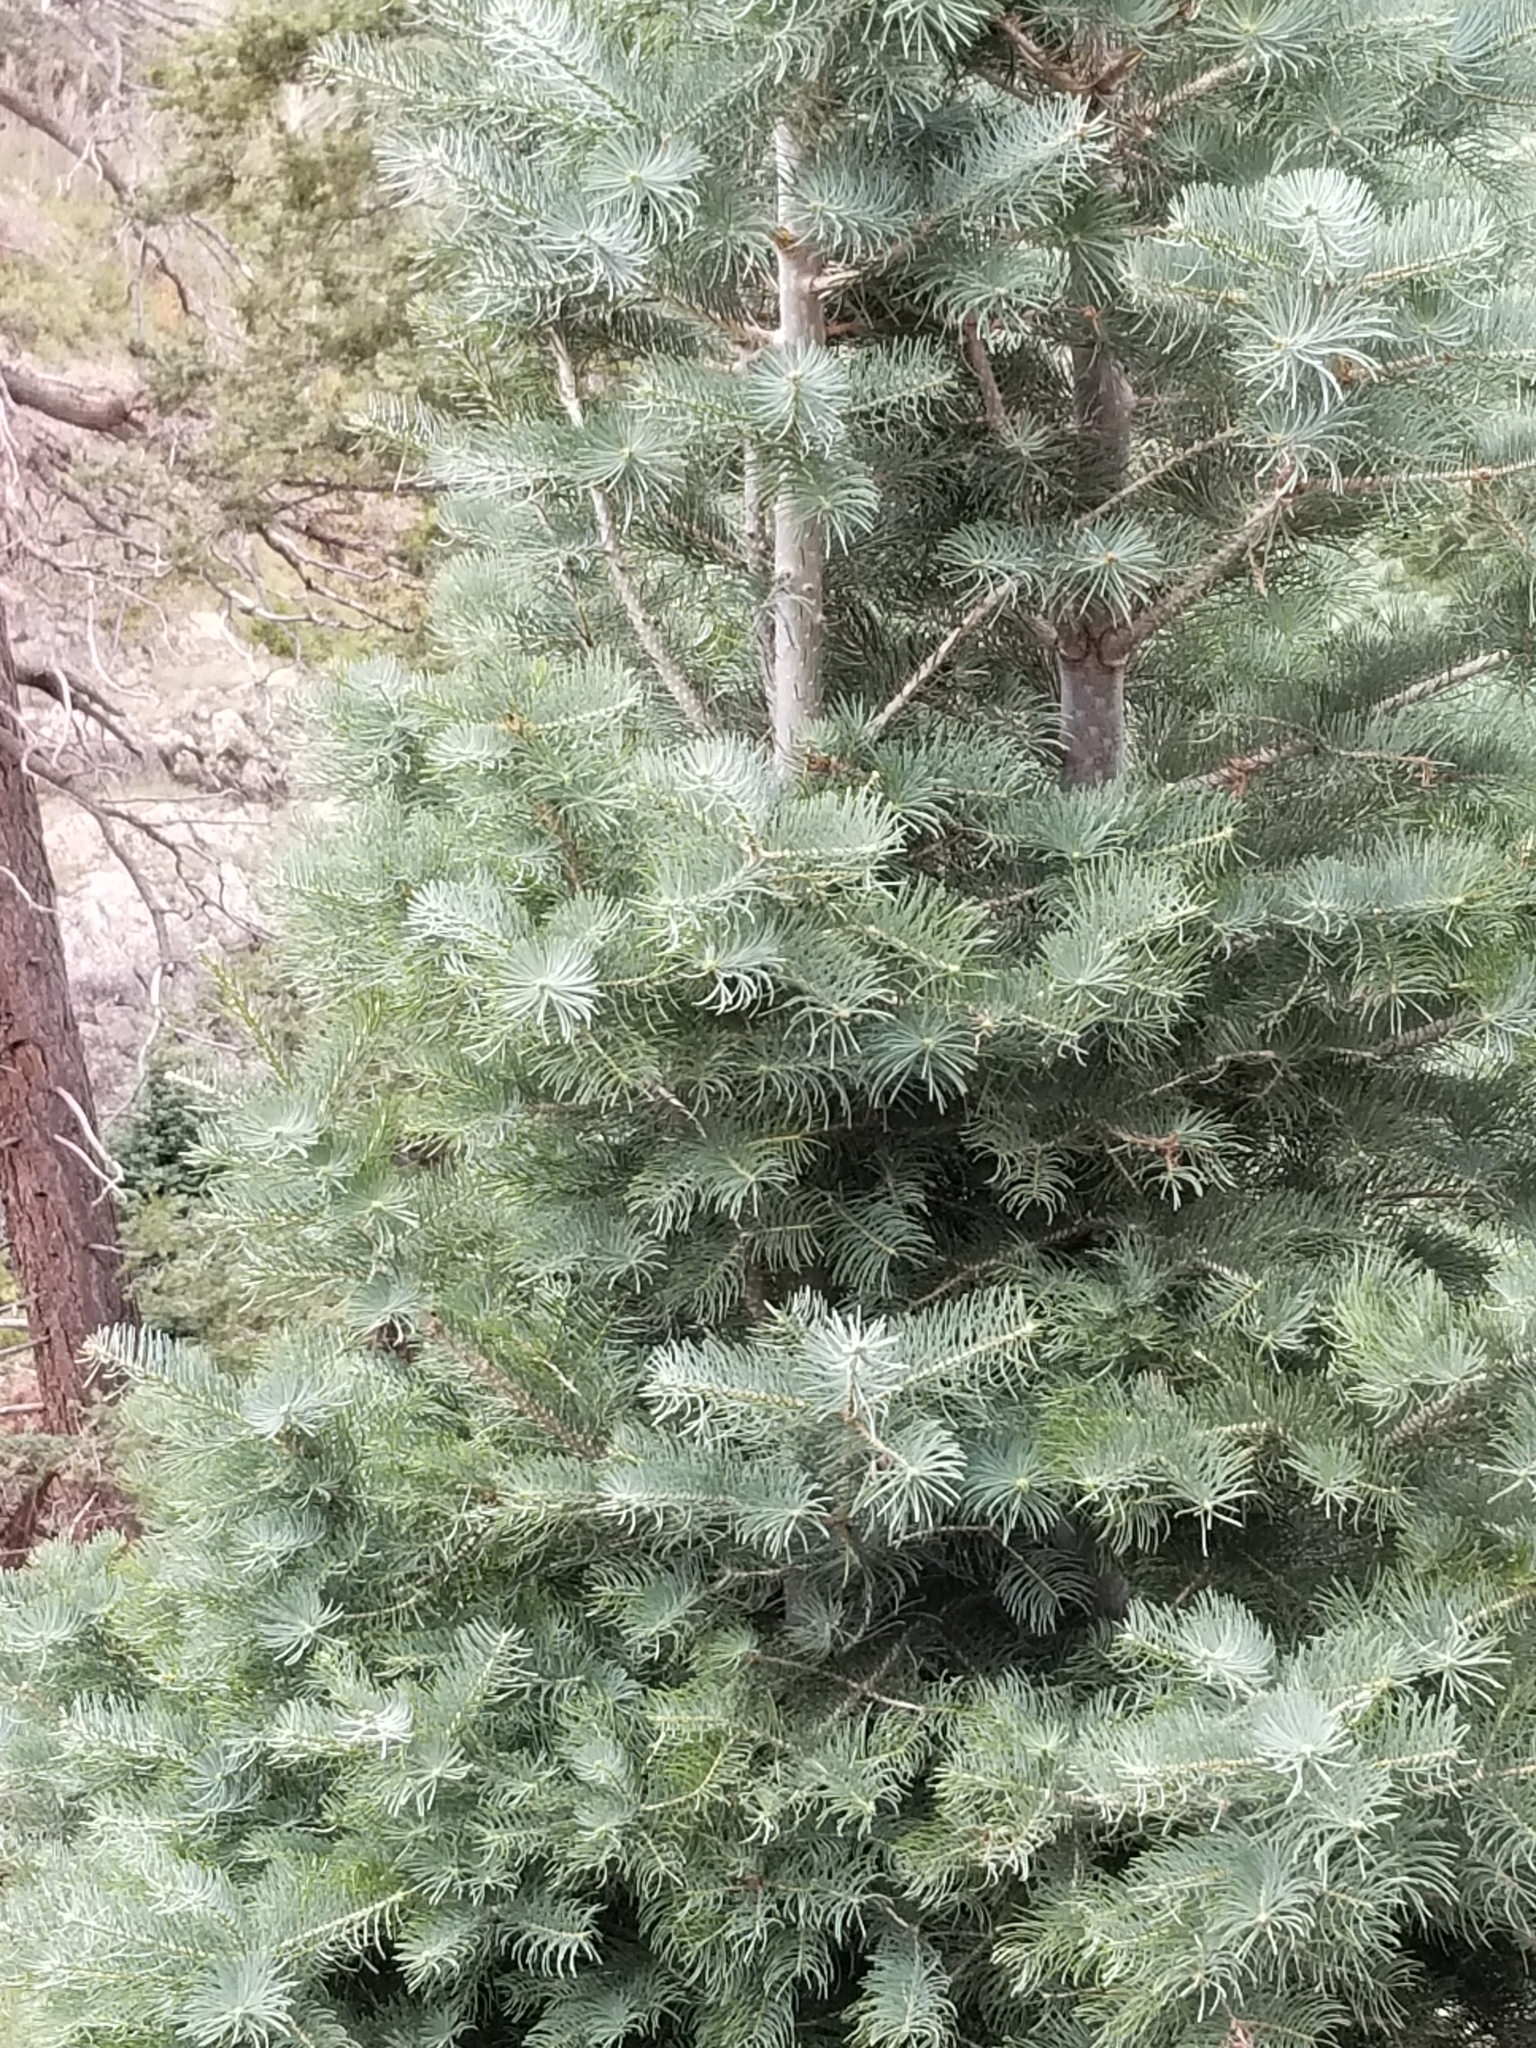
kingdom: Plantae
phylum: Tracheophyta
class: Pinopsida
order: Pinales
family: Pinaceae
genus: Picea
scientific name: Picea pungens
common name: Colorado spruce
